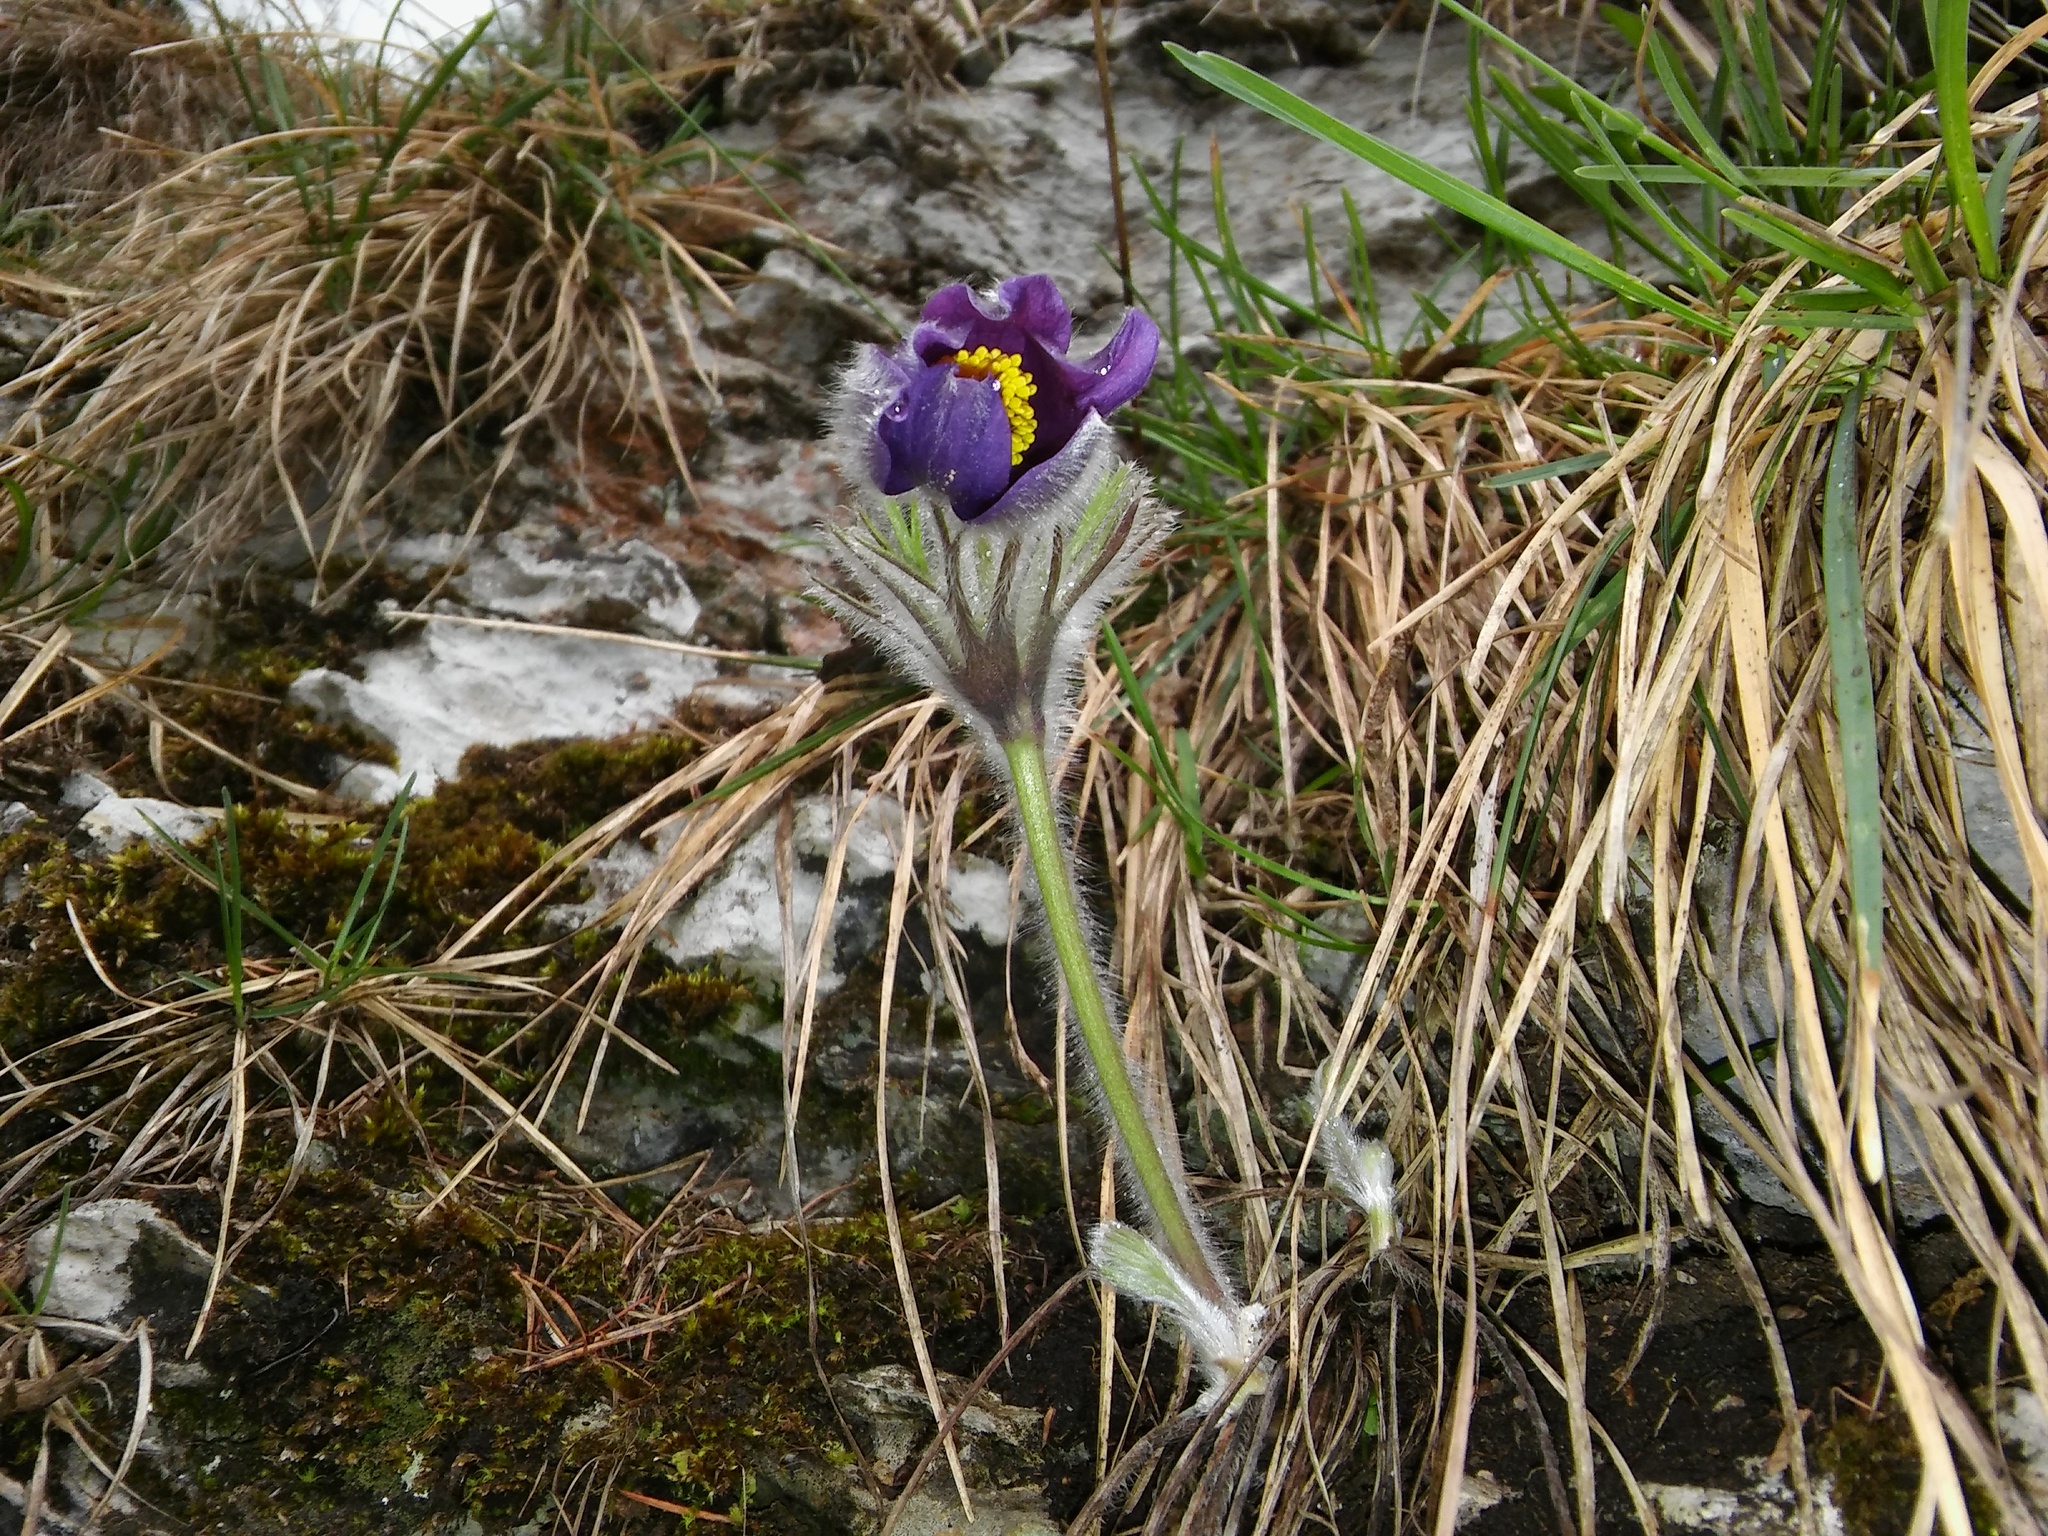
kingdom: Plantae
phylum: Tracheophyta
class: Magnoliopsida
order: Ranunculales
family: Ranunculaceae
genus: Pulsatilla
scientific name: Pulsatilla halleri
